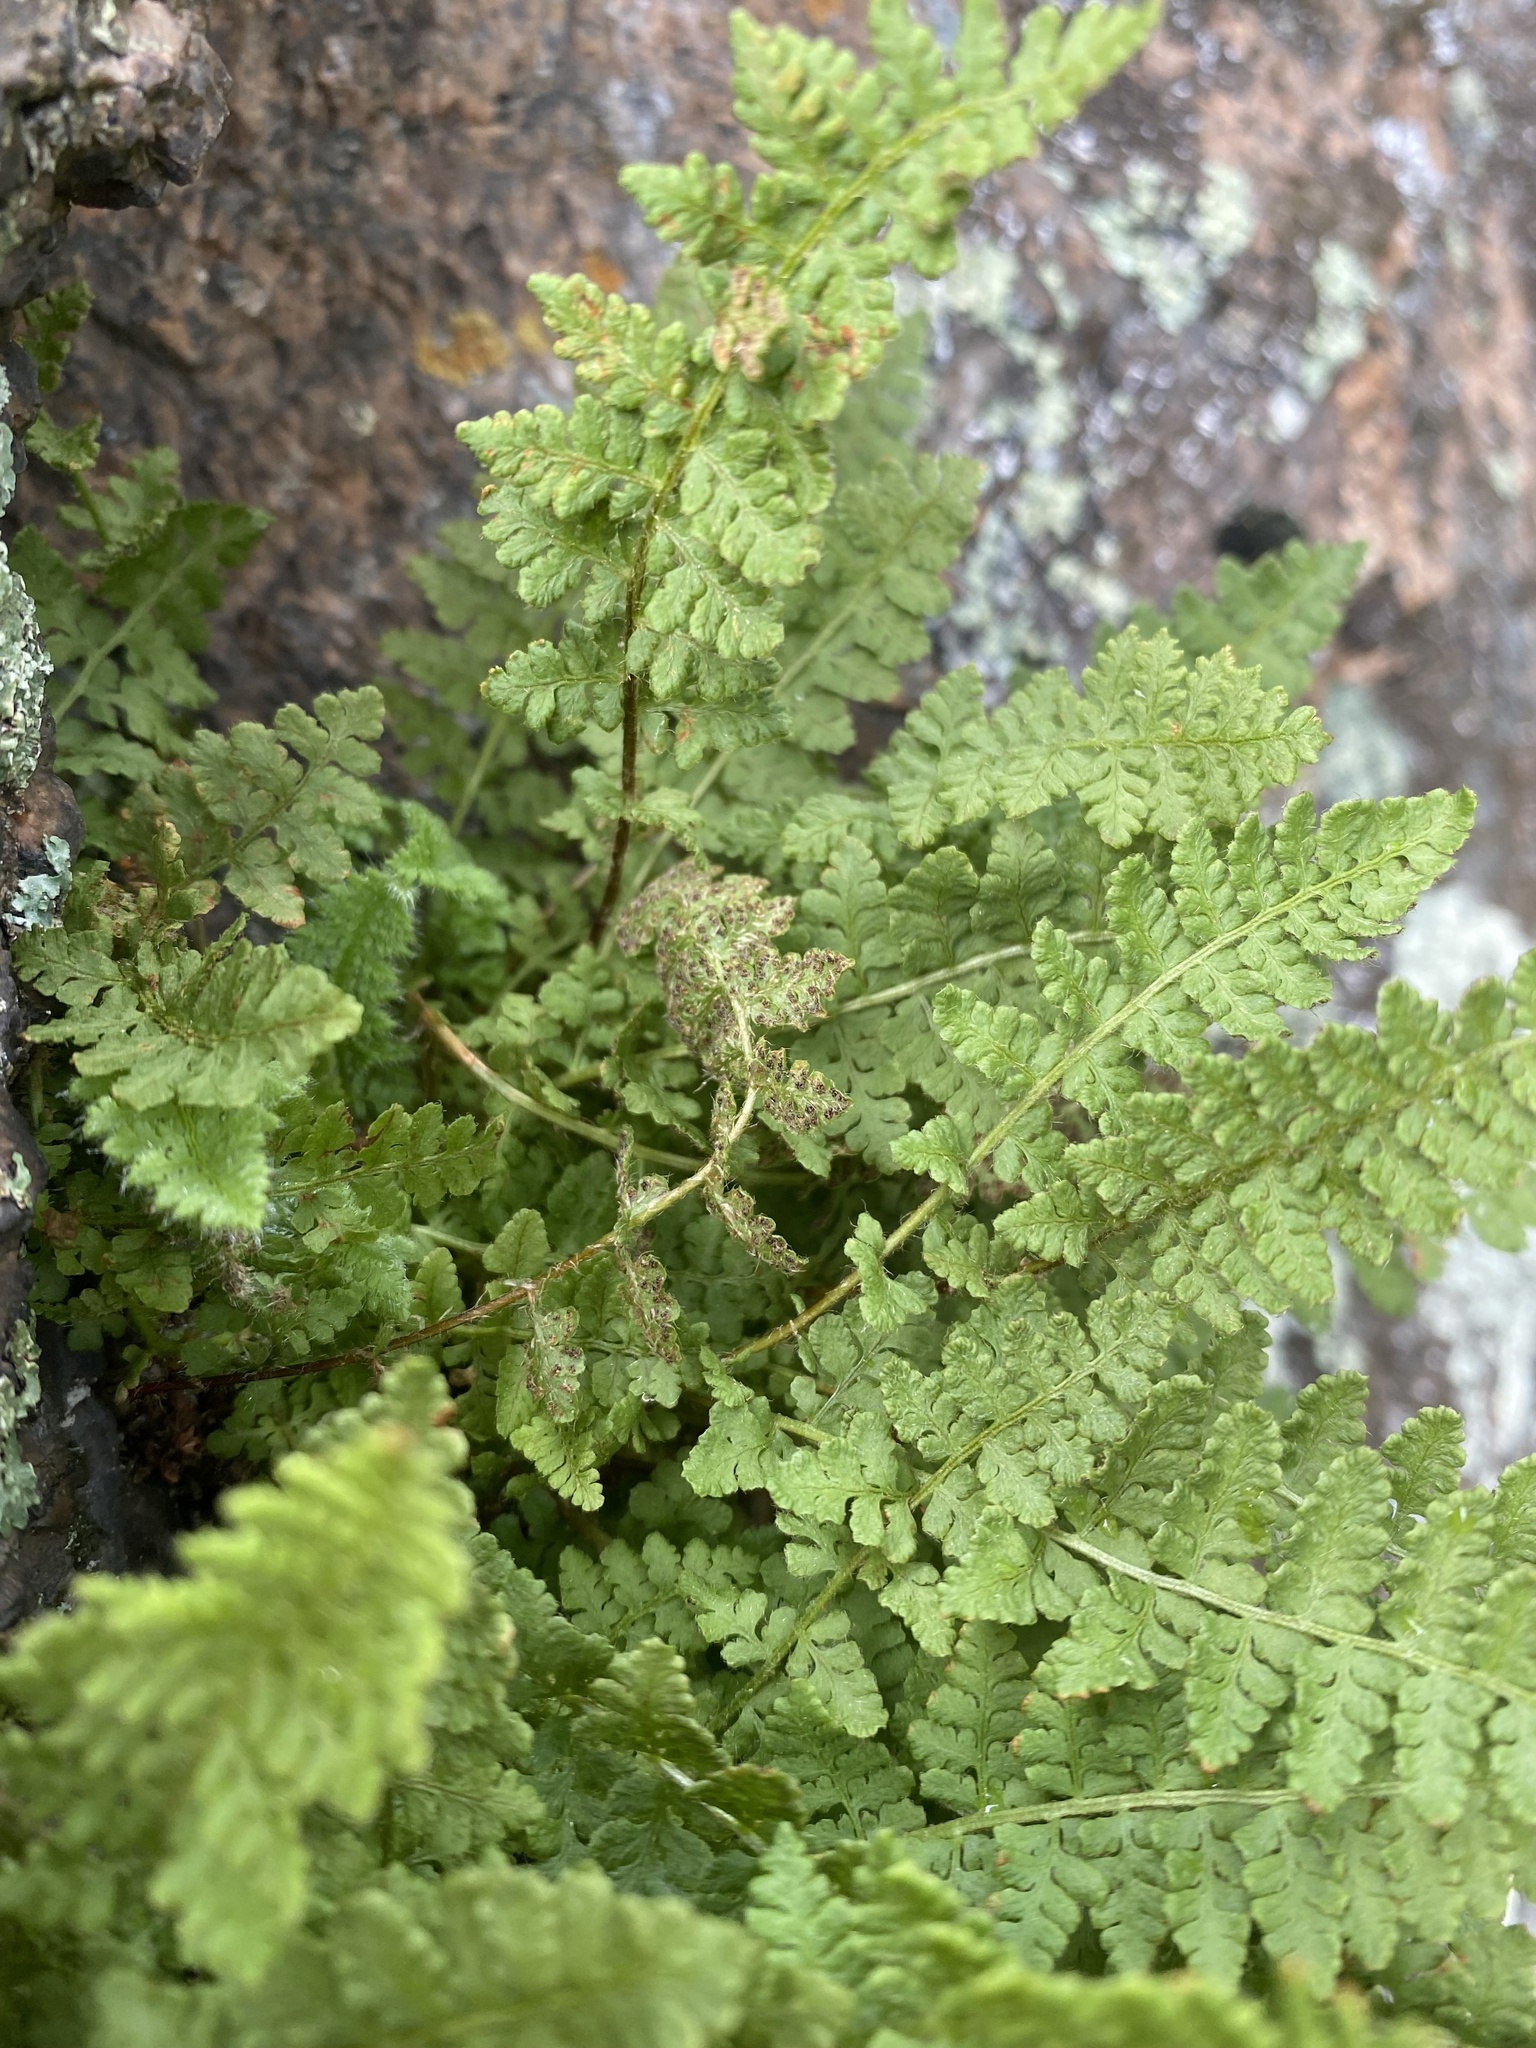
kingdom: Plantae
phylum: Tracheophyta
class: Polypodiopsida
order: Polypodiales
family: Woodsiaceae
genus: Woodsia
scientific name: Woodsia calcarea
